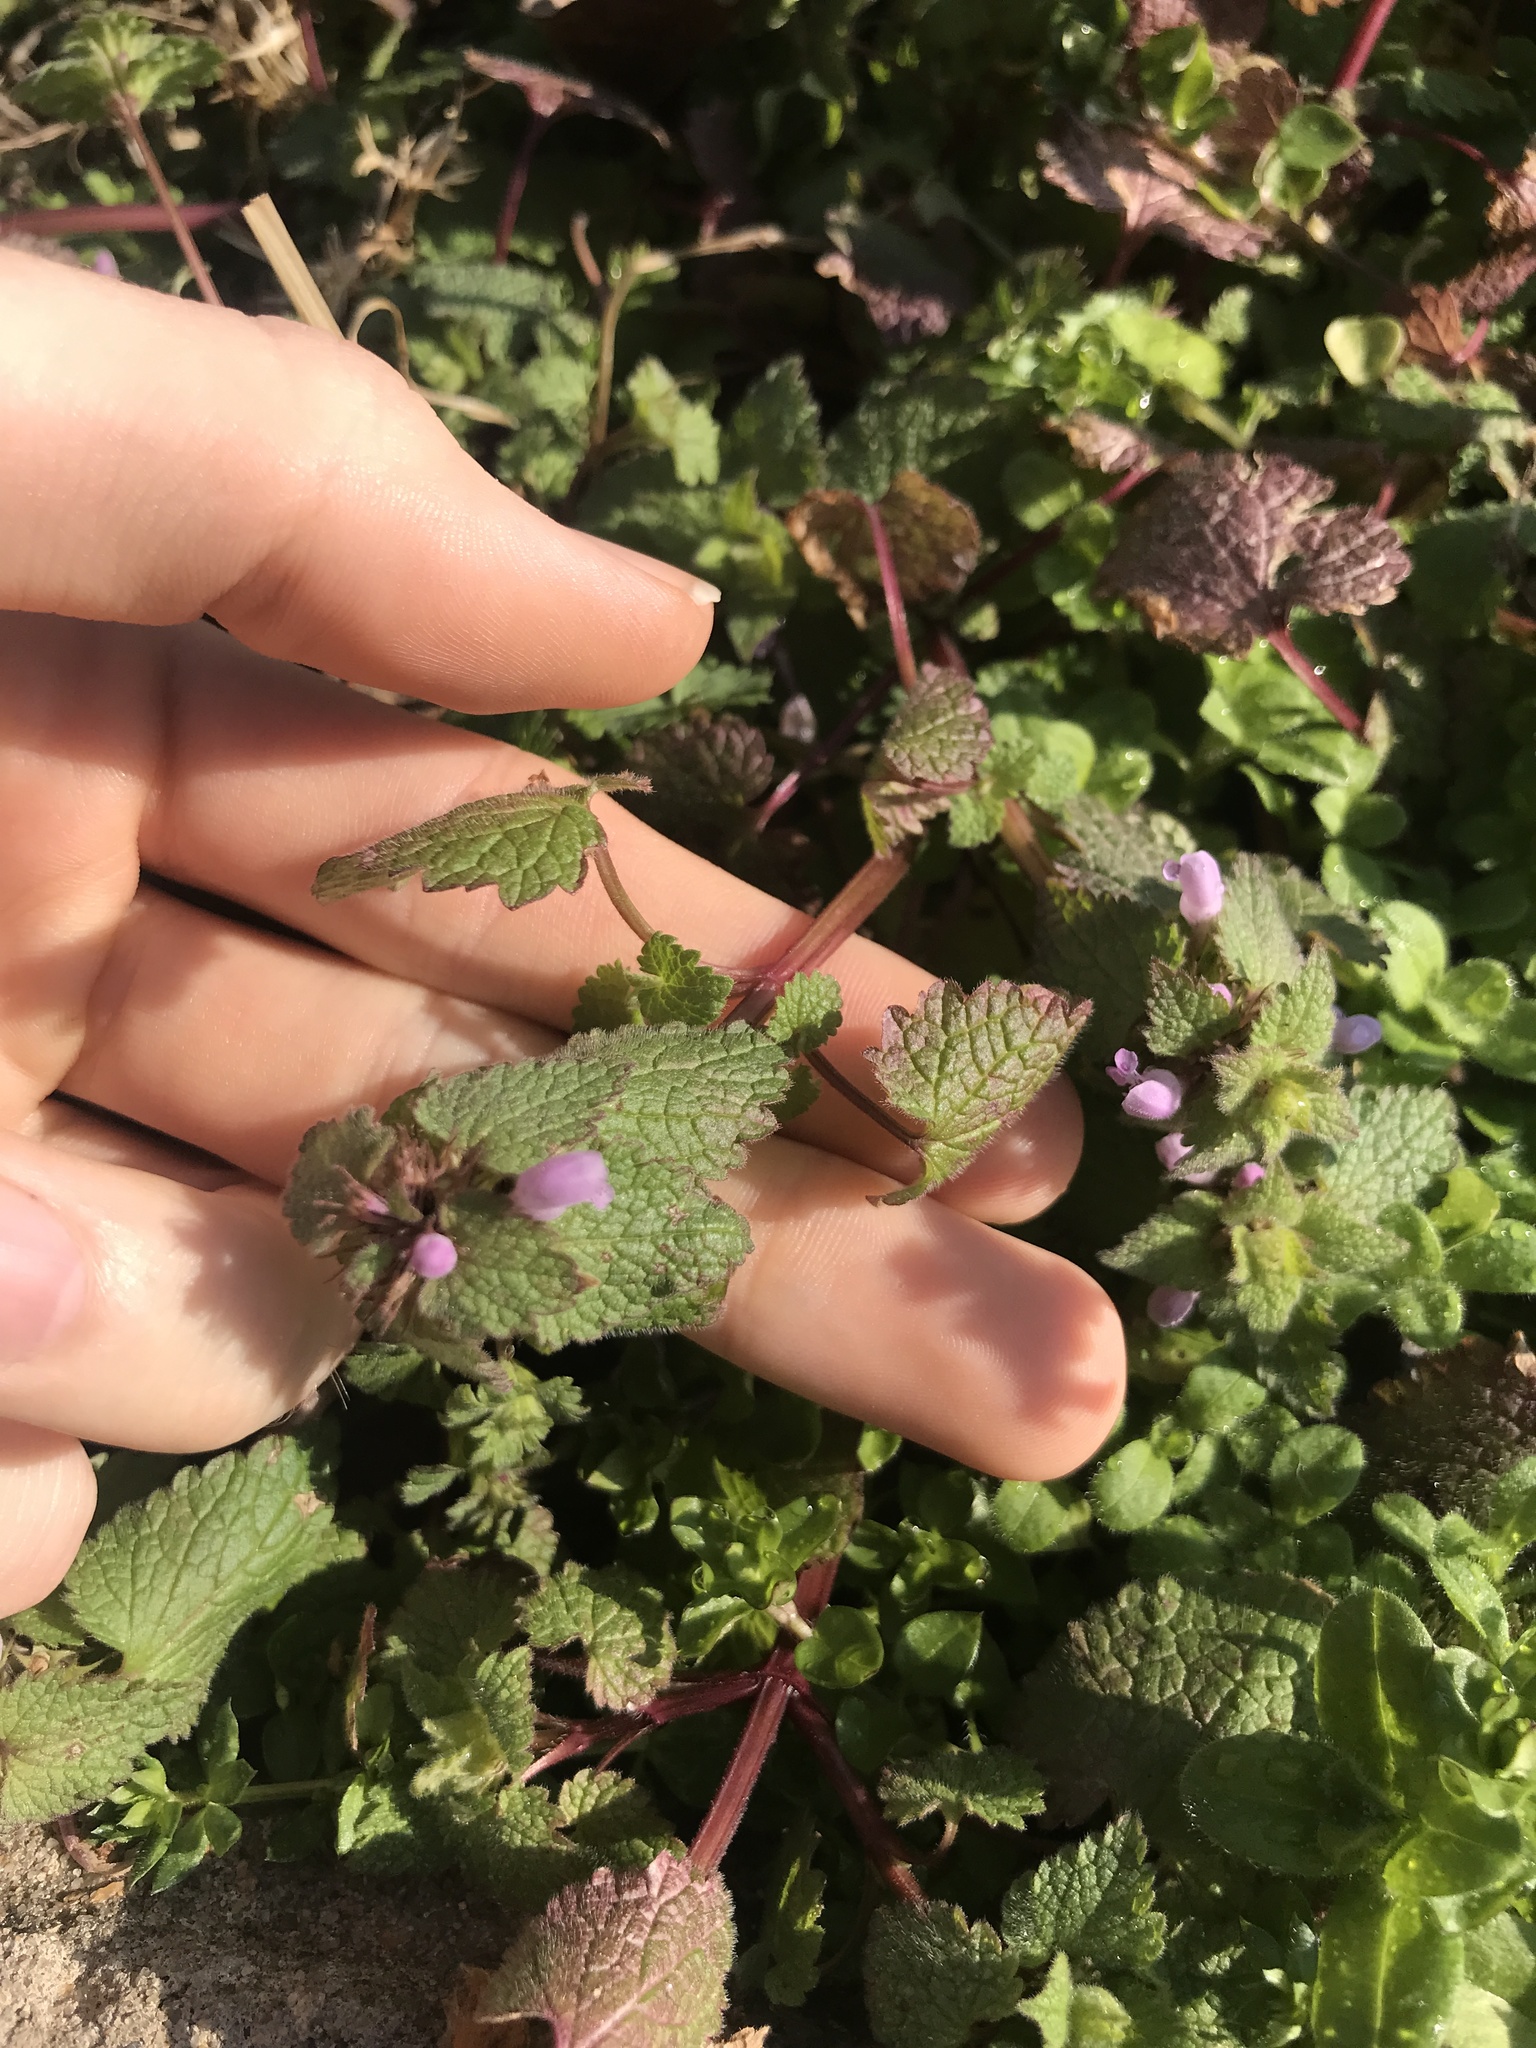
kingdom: Plantae
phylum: Tracheophyta
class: Magnoliopsida
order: Lamiales
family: Lamiaceae
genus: Lamium
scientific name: Lamium purpureum
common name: Red dead-nettle
